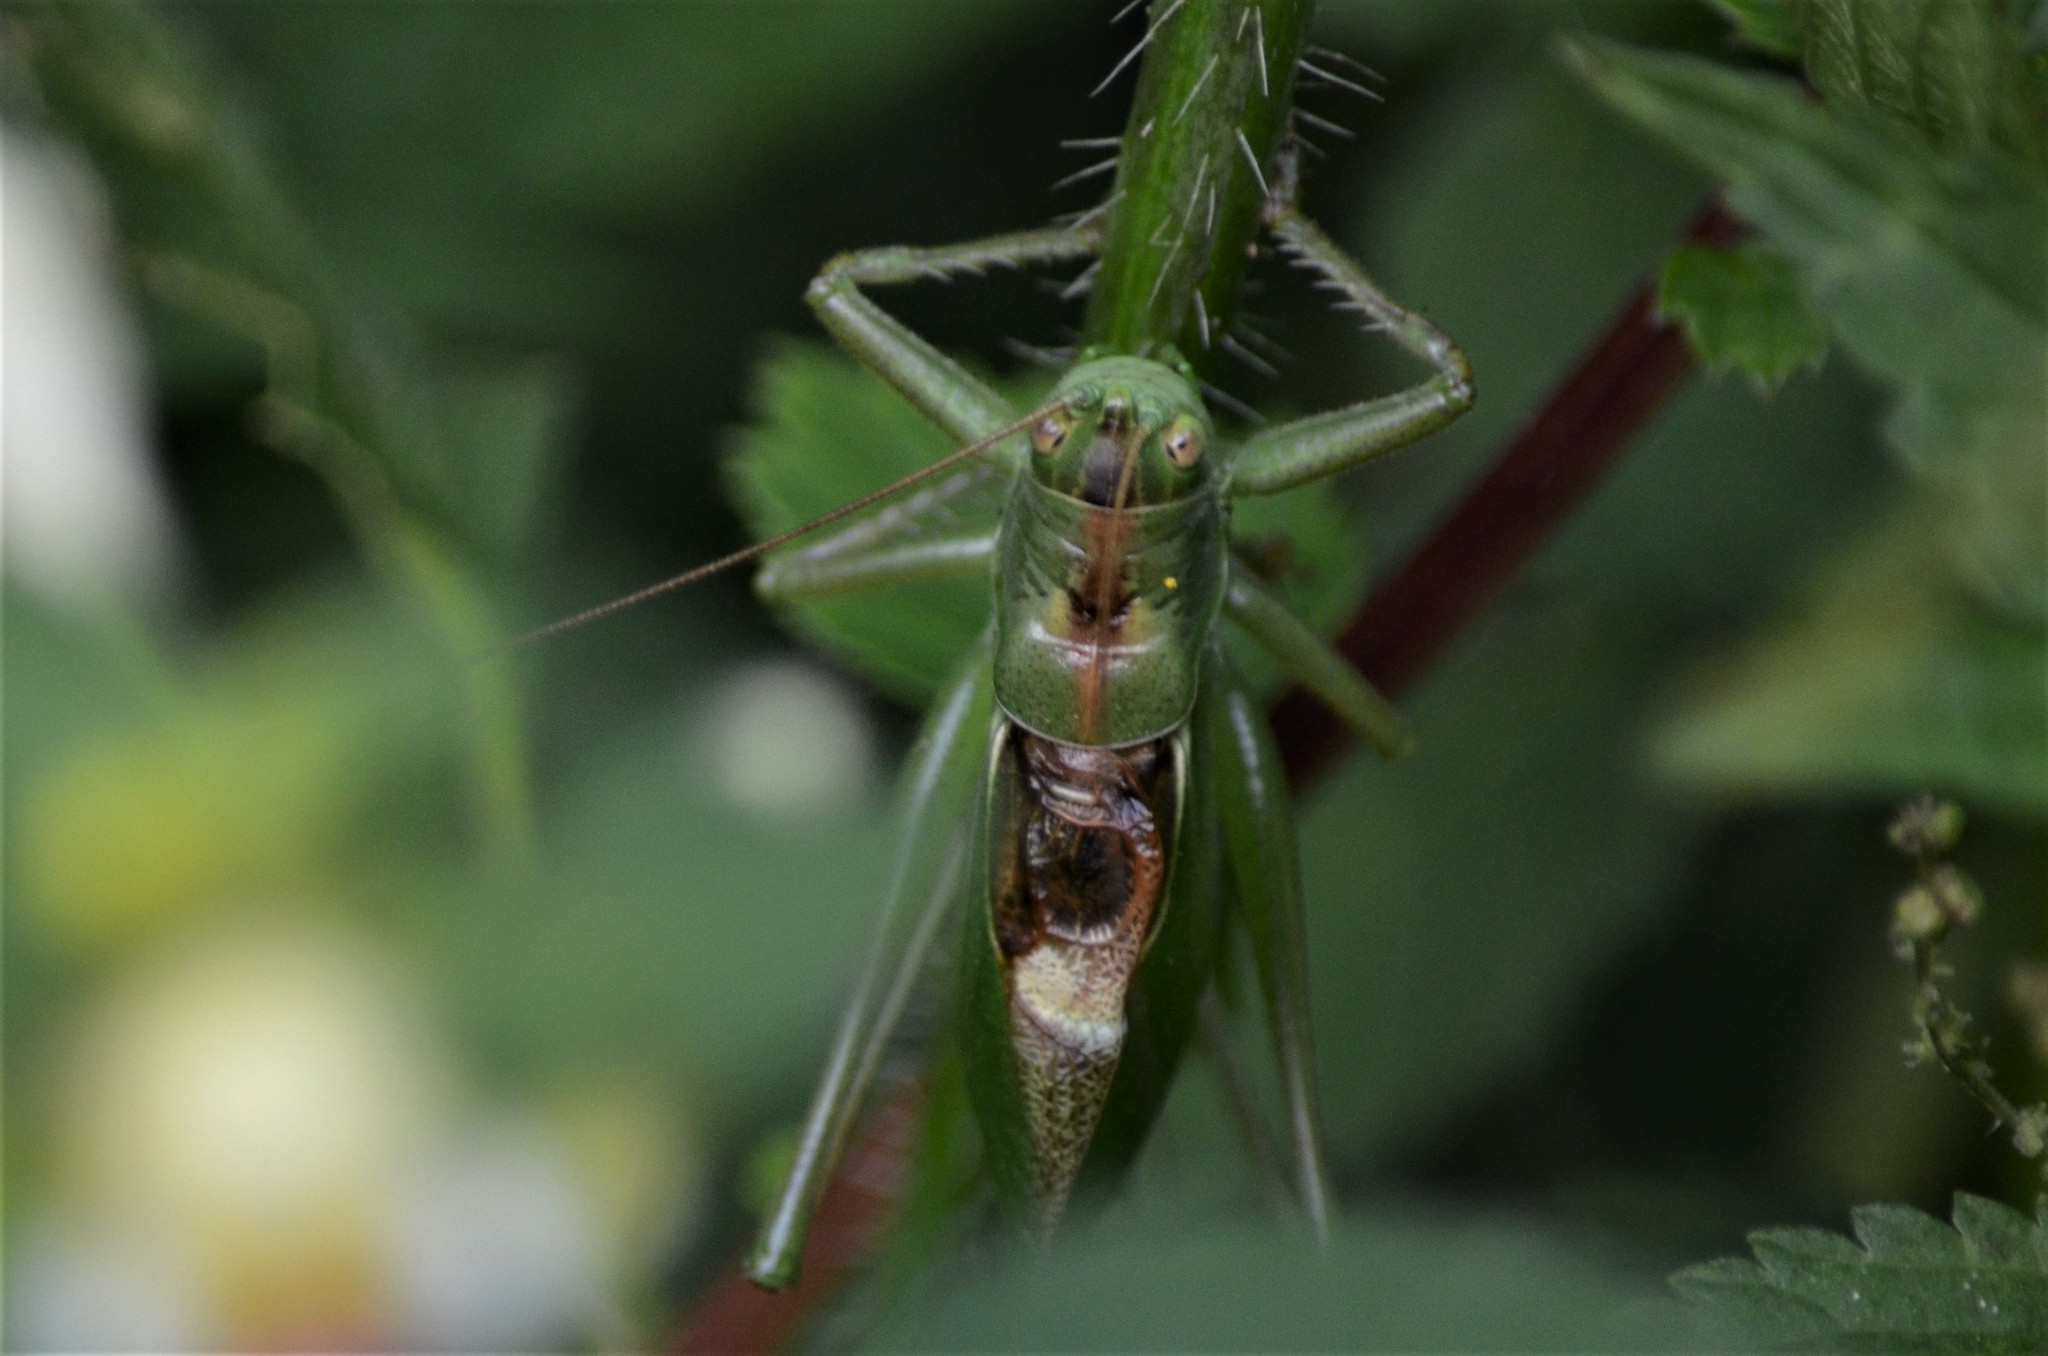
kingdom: Animalia
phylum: Arthropoda
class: Insecta
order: Orthoptera
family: Tettigoniidae
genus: Tettigonia
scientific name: Tettigonia cantans
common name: Upland green bush-cricket
